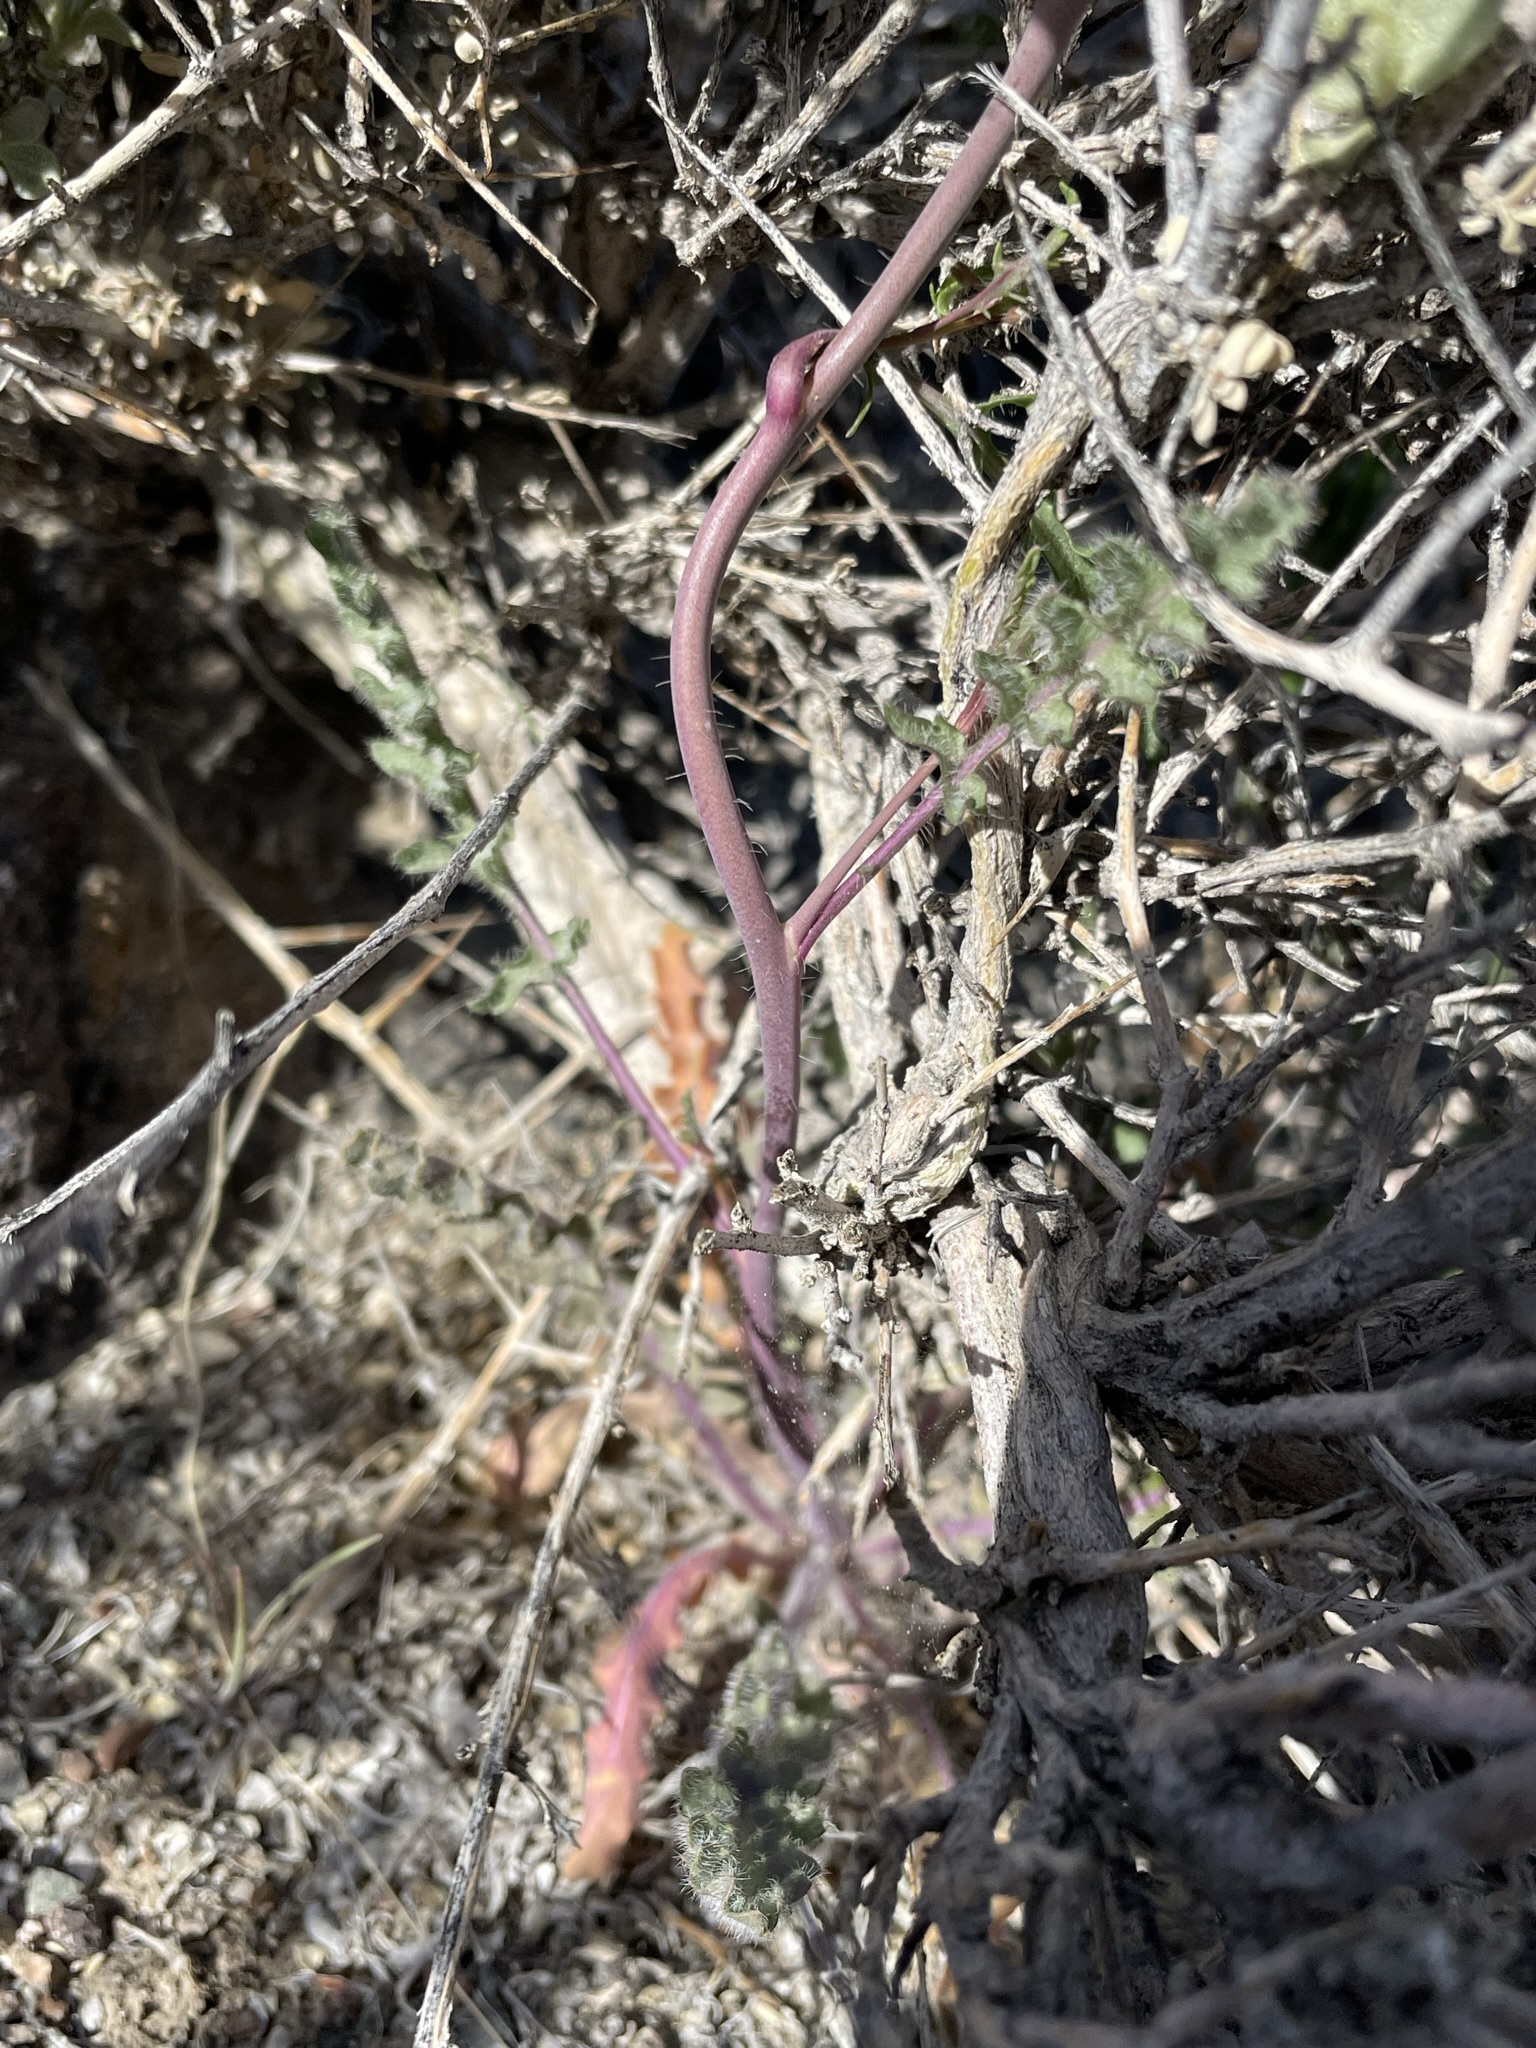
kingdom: Plantae
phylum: Tracheophyta
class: Magnoliopsida
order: Brassicales
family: Brassicaceae
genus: Streptanthus
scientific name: Streptanthus pilosus
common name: Chocolate drops
